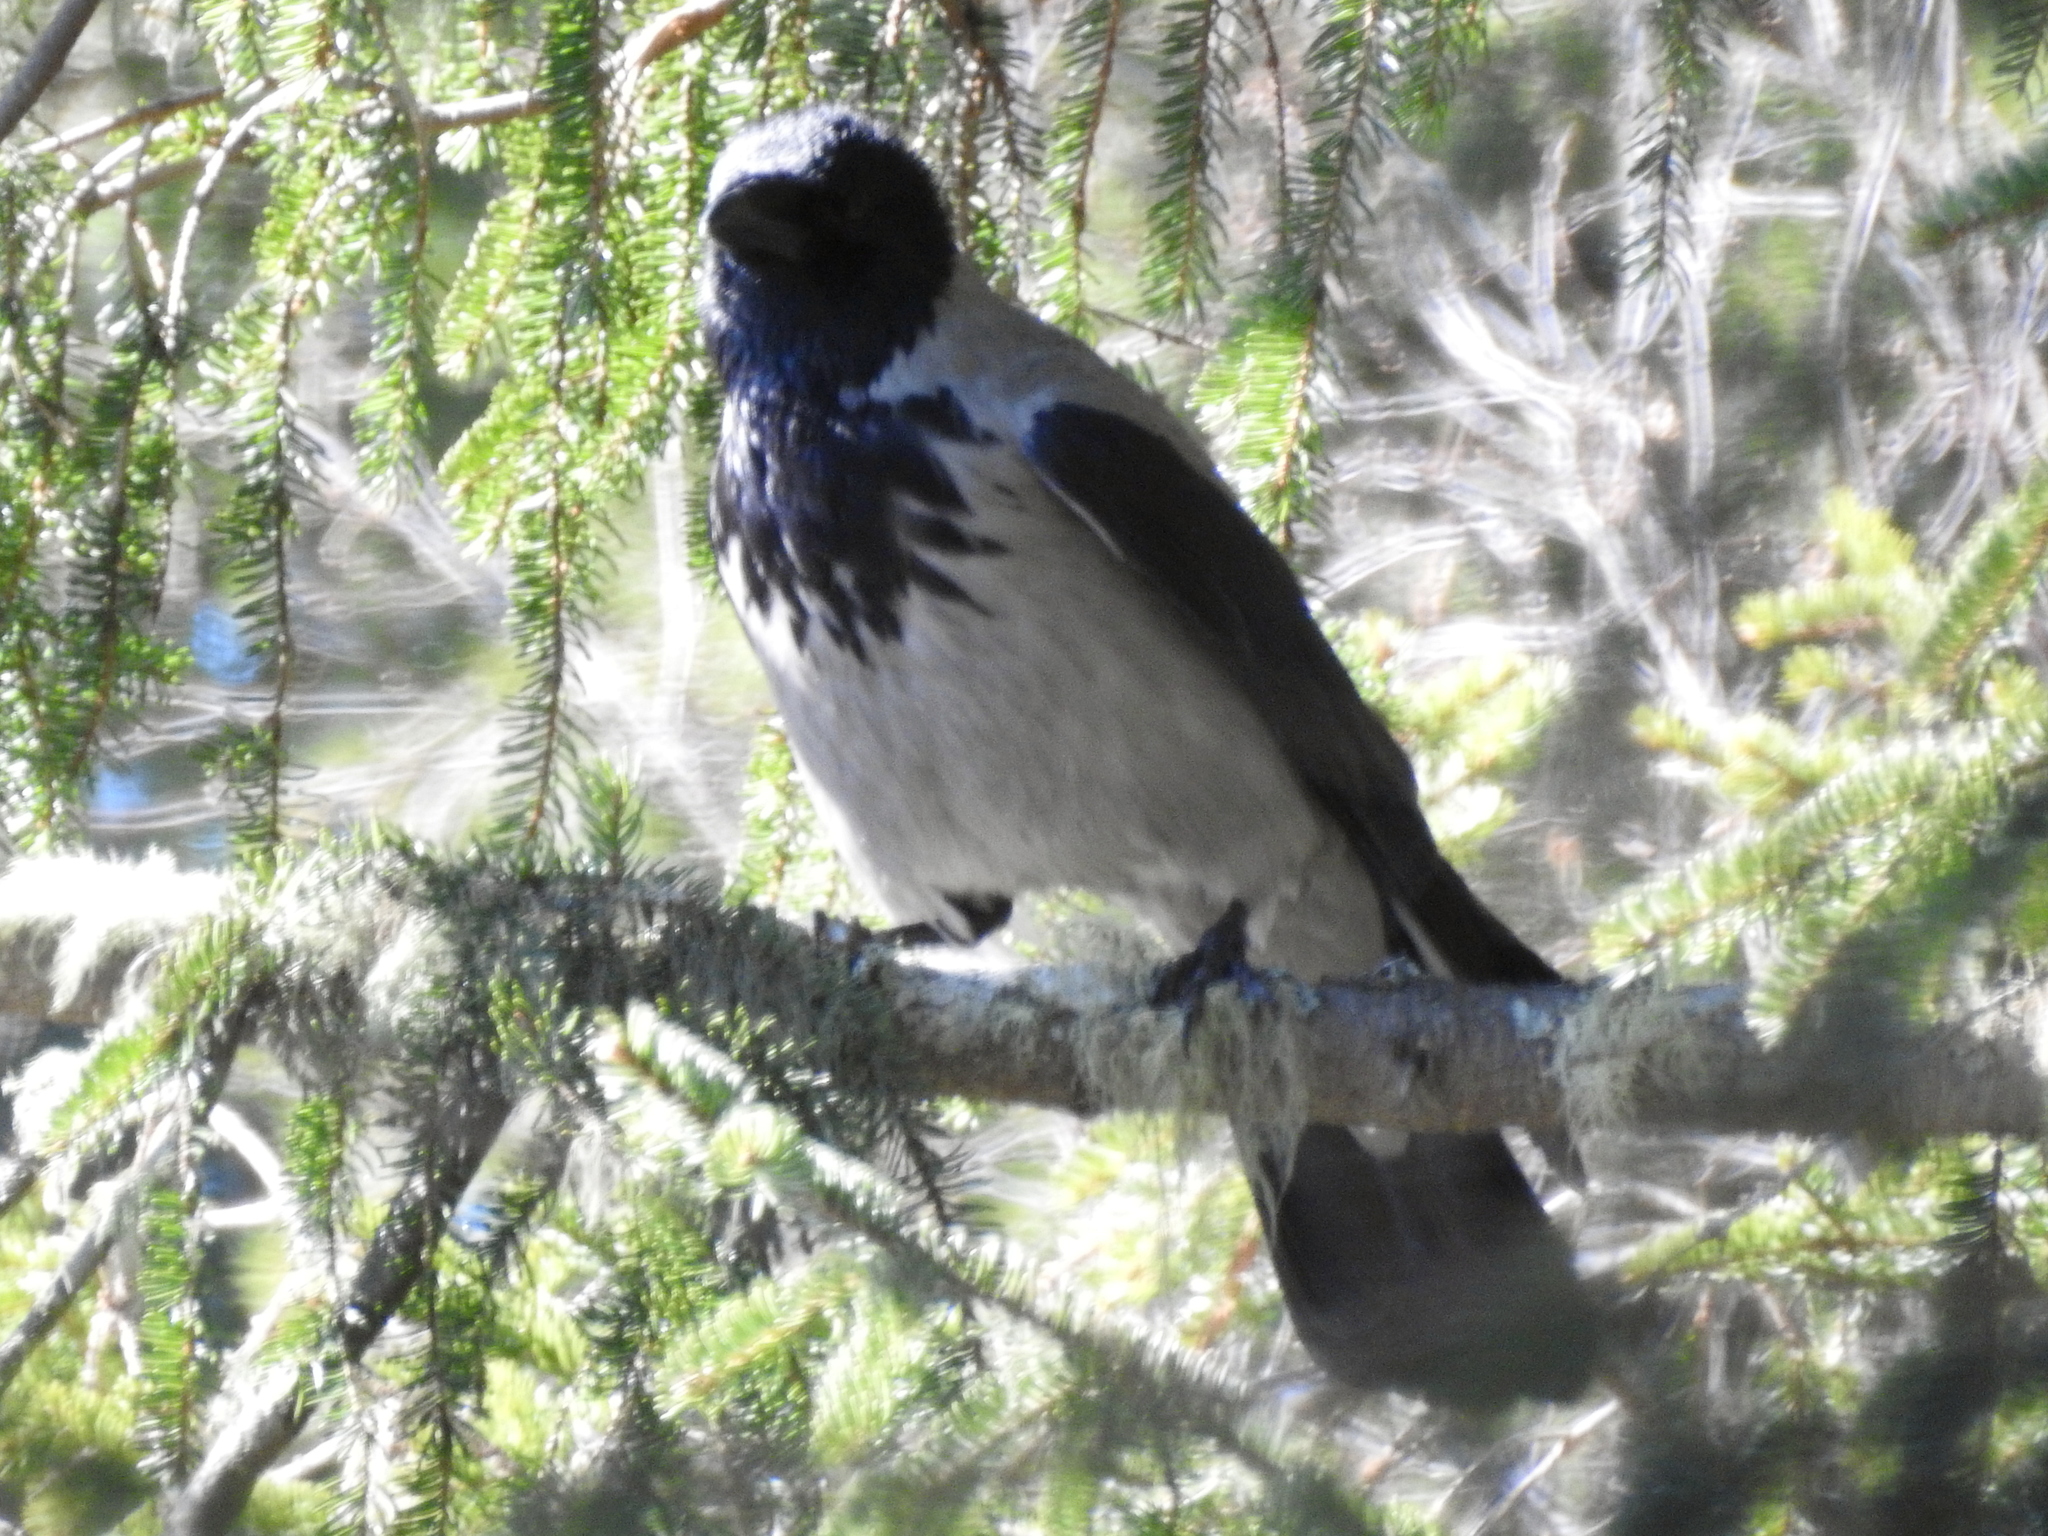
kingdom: Animalia
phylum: Chordata
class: Aves
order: Passeriformes
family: Corvidae
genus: Corvus
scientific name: Corvus cornix
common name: Hooded crow
